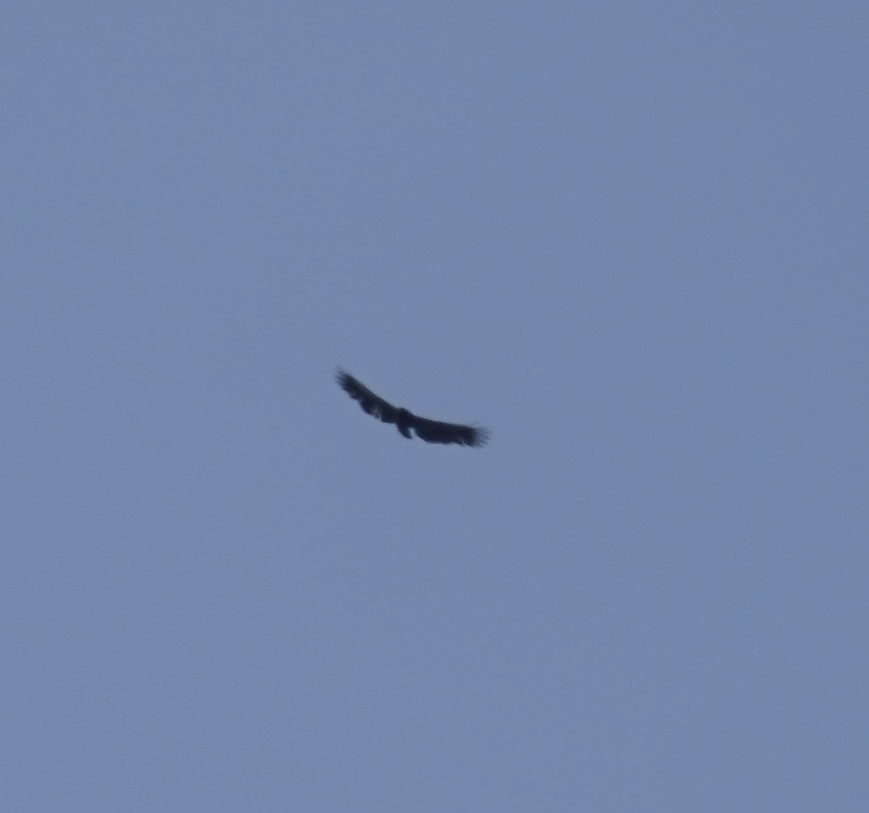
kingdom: Animalia
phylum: Chordata
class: Aves
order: Accipitriformes
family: Accipitridae
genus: Spilornis
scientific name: Spilornis cheela
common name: Crested serpent eagle
